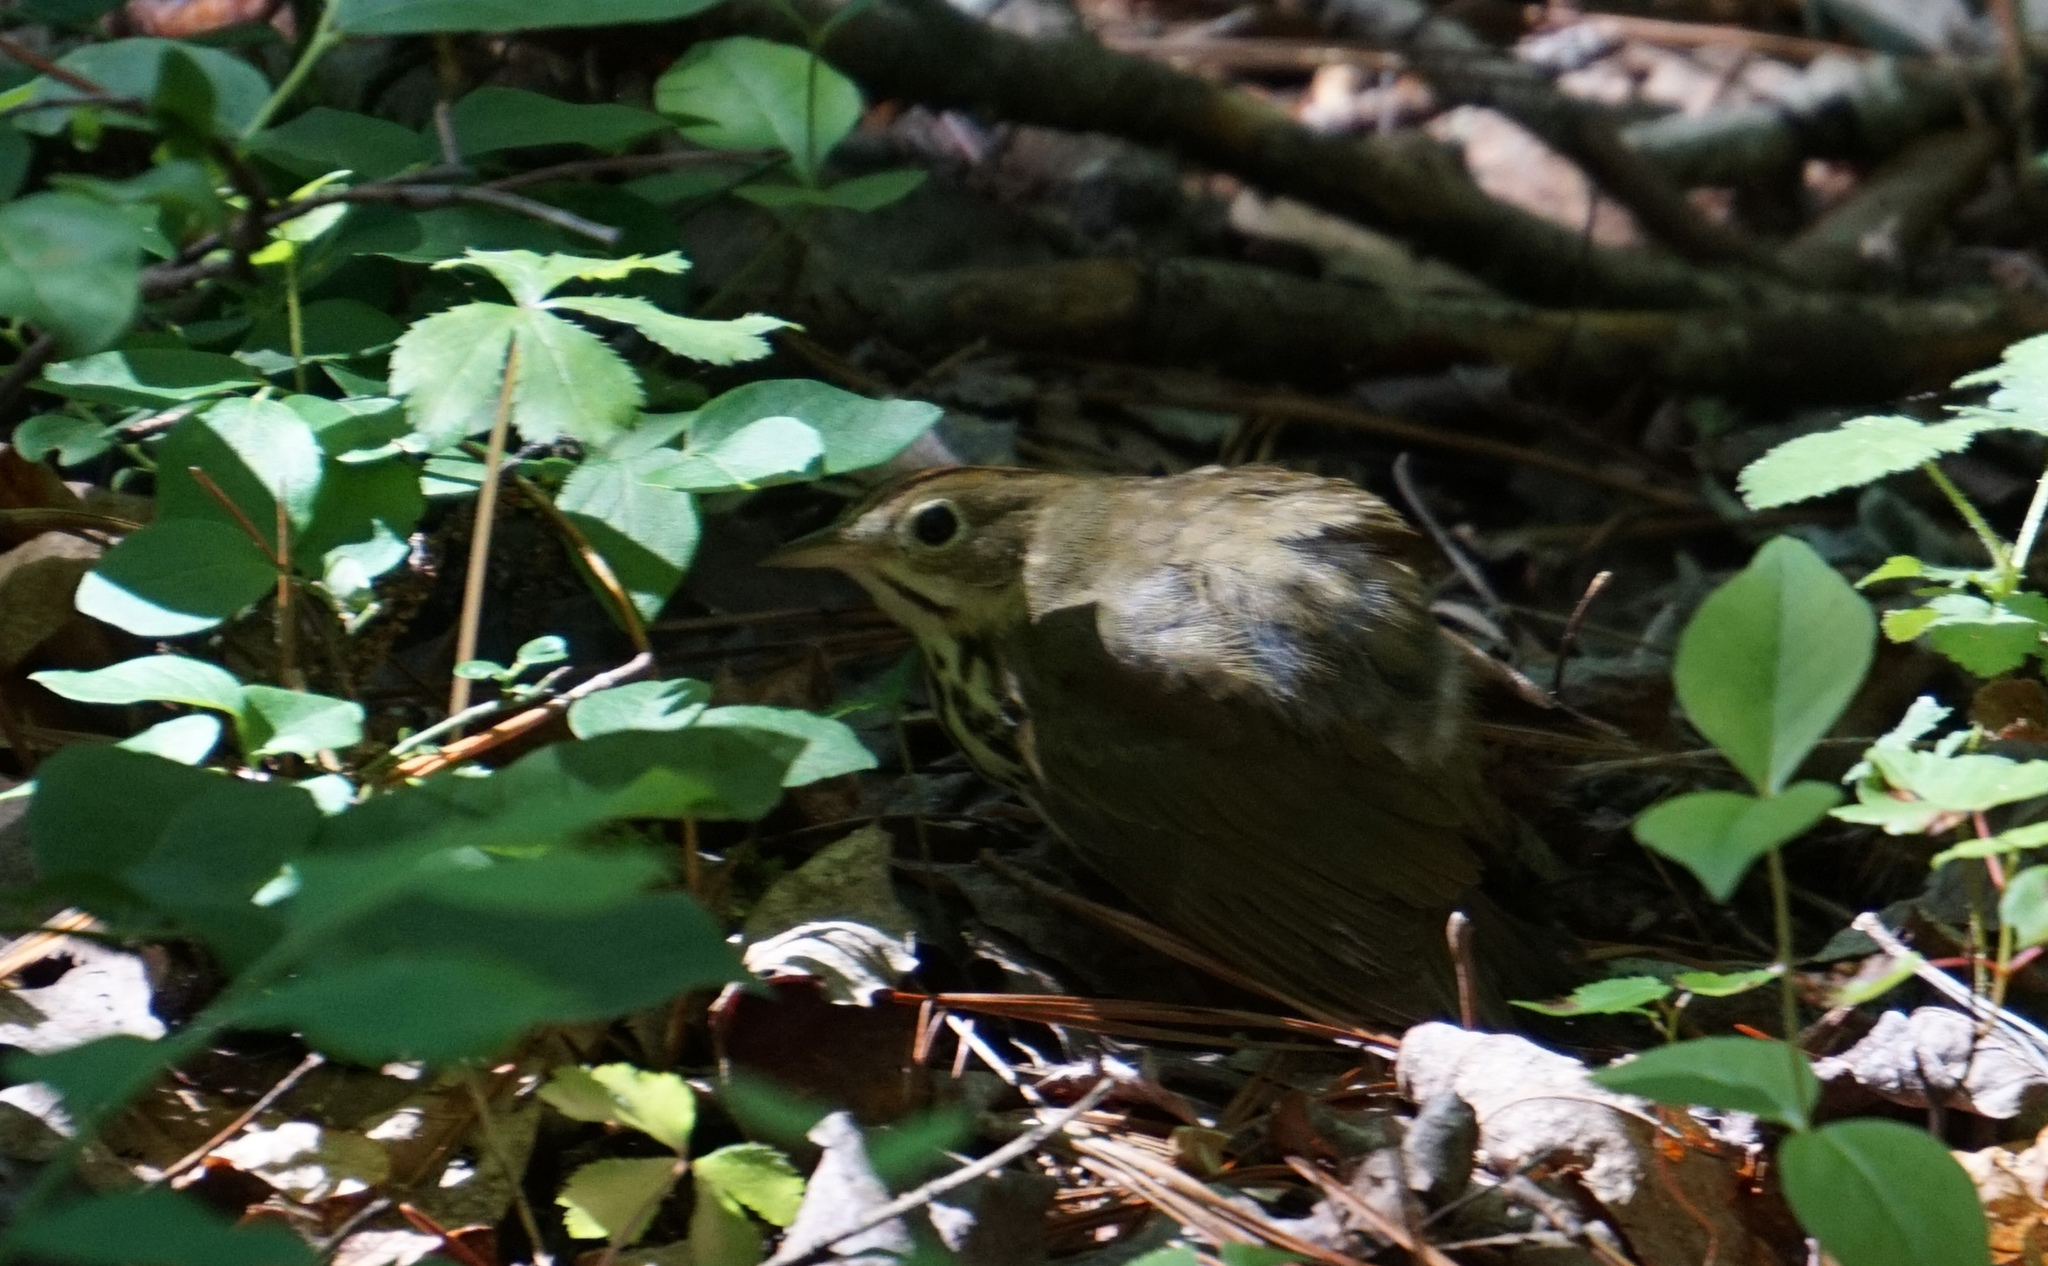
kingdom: Animalia
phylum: Chordata
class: Aves
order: Passeriformes
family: Parulidae
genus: Seiurus
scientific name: Seiurus aurocapilla
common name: Ovenbird
